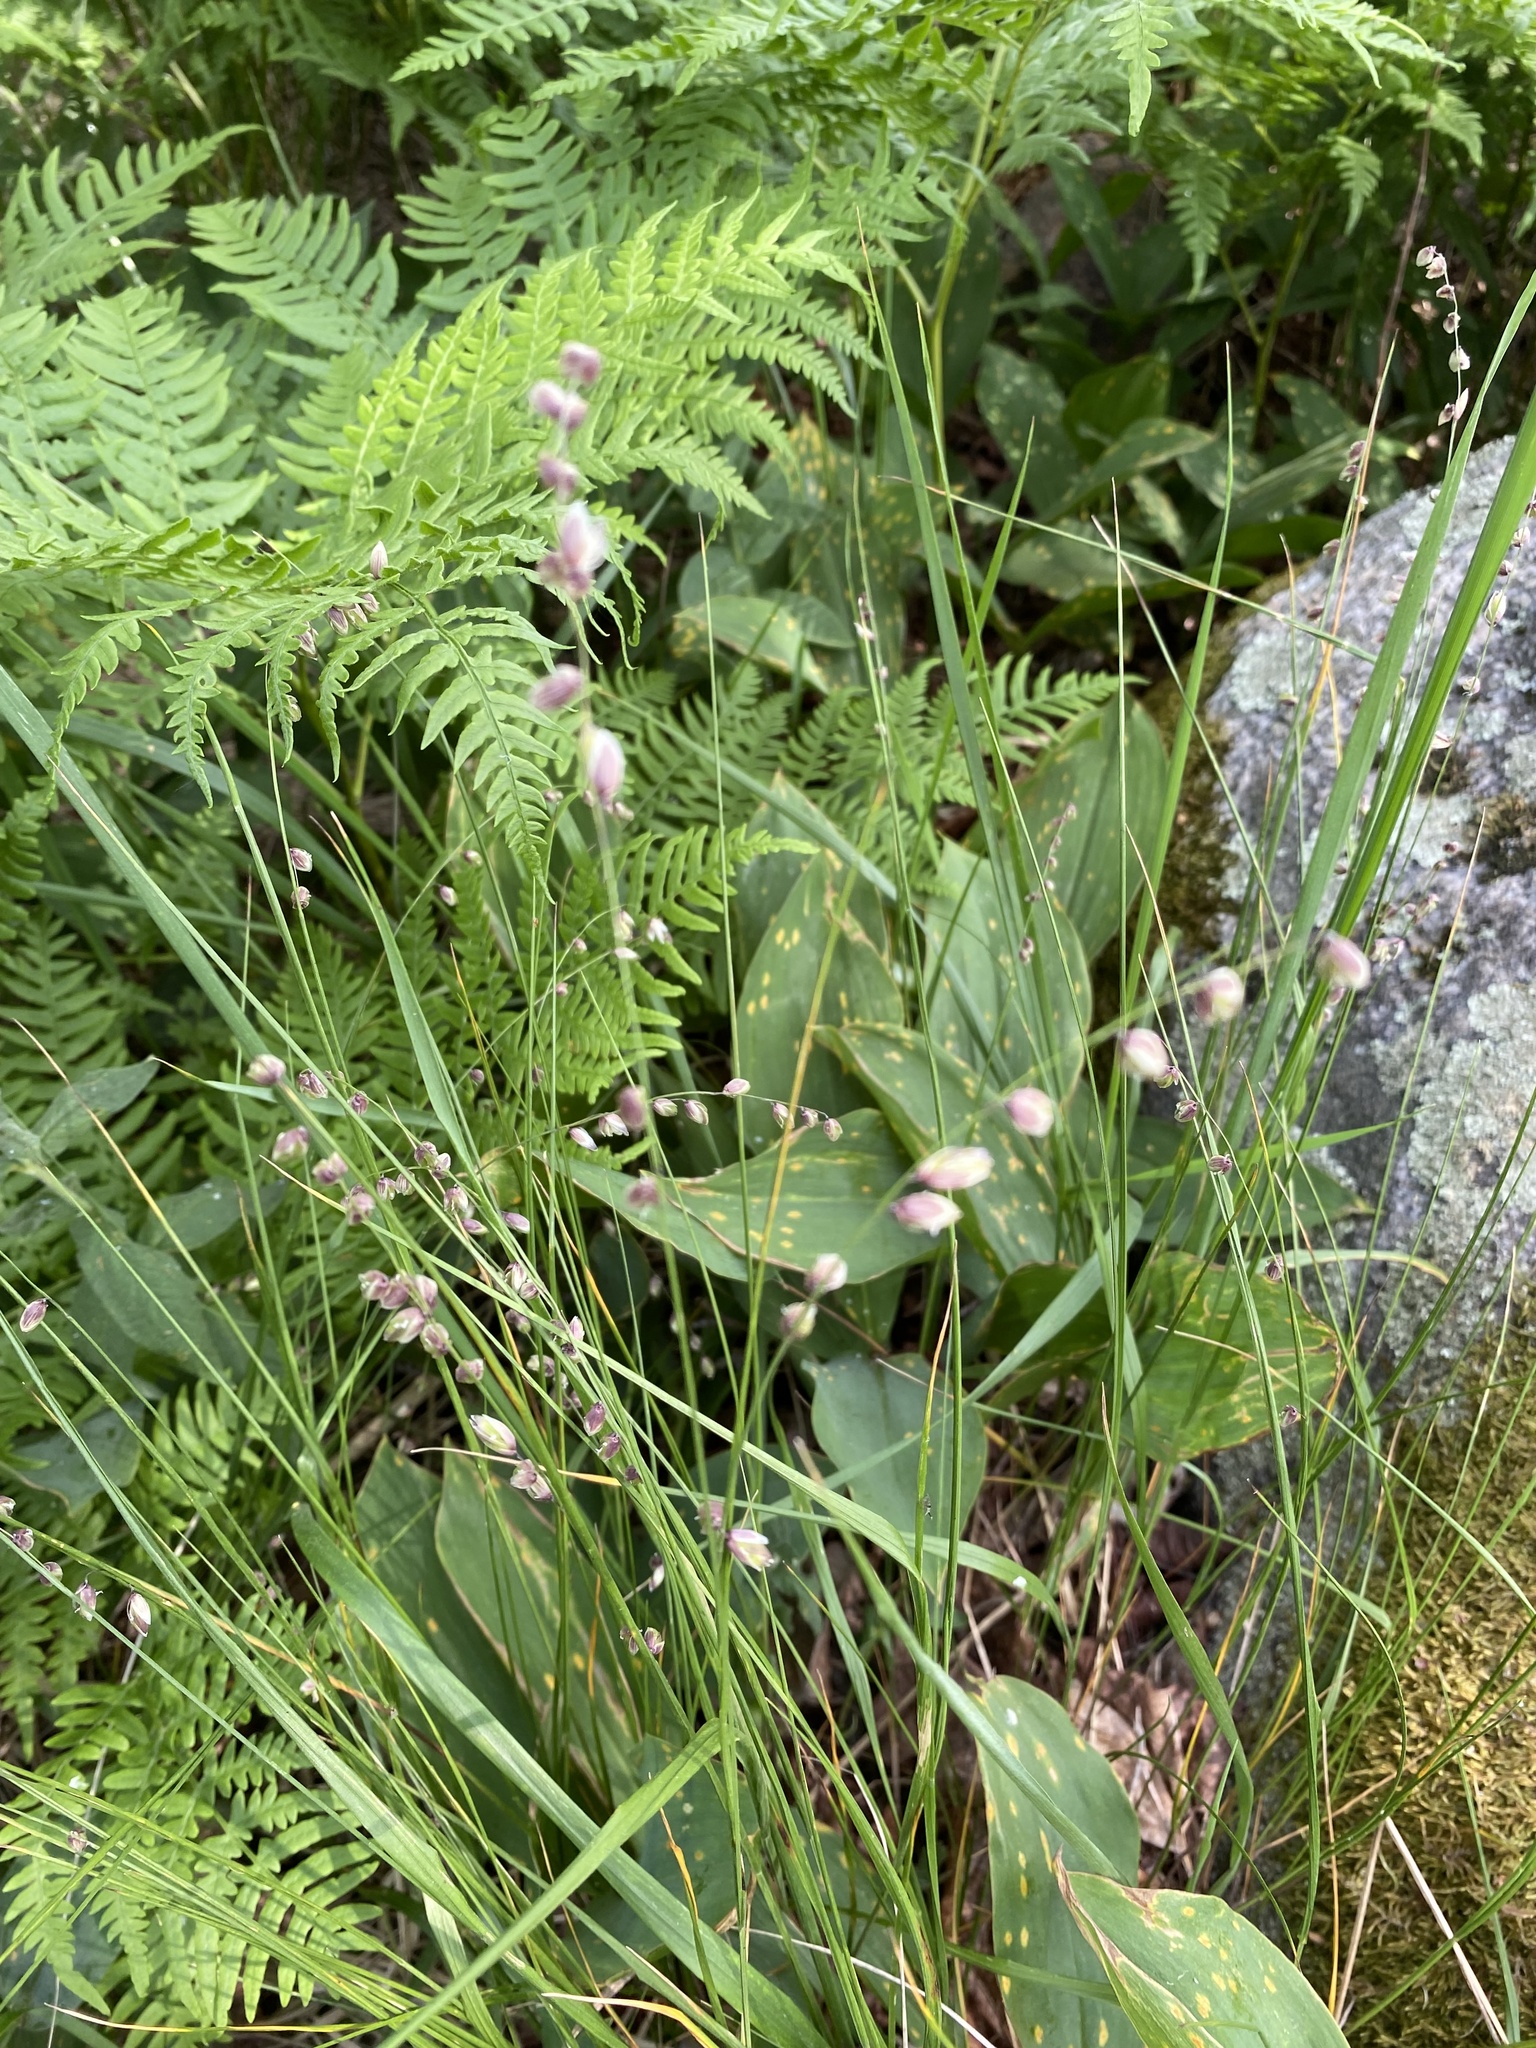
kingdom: Plantae
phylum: Tracheophyta
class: Liliopsida
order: Poales
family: Poaceae
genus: Melica
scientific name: Melica nutans
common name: Mountain melick
